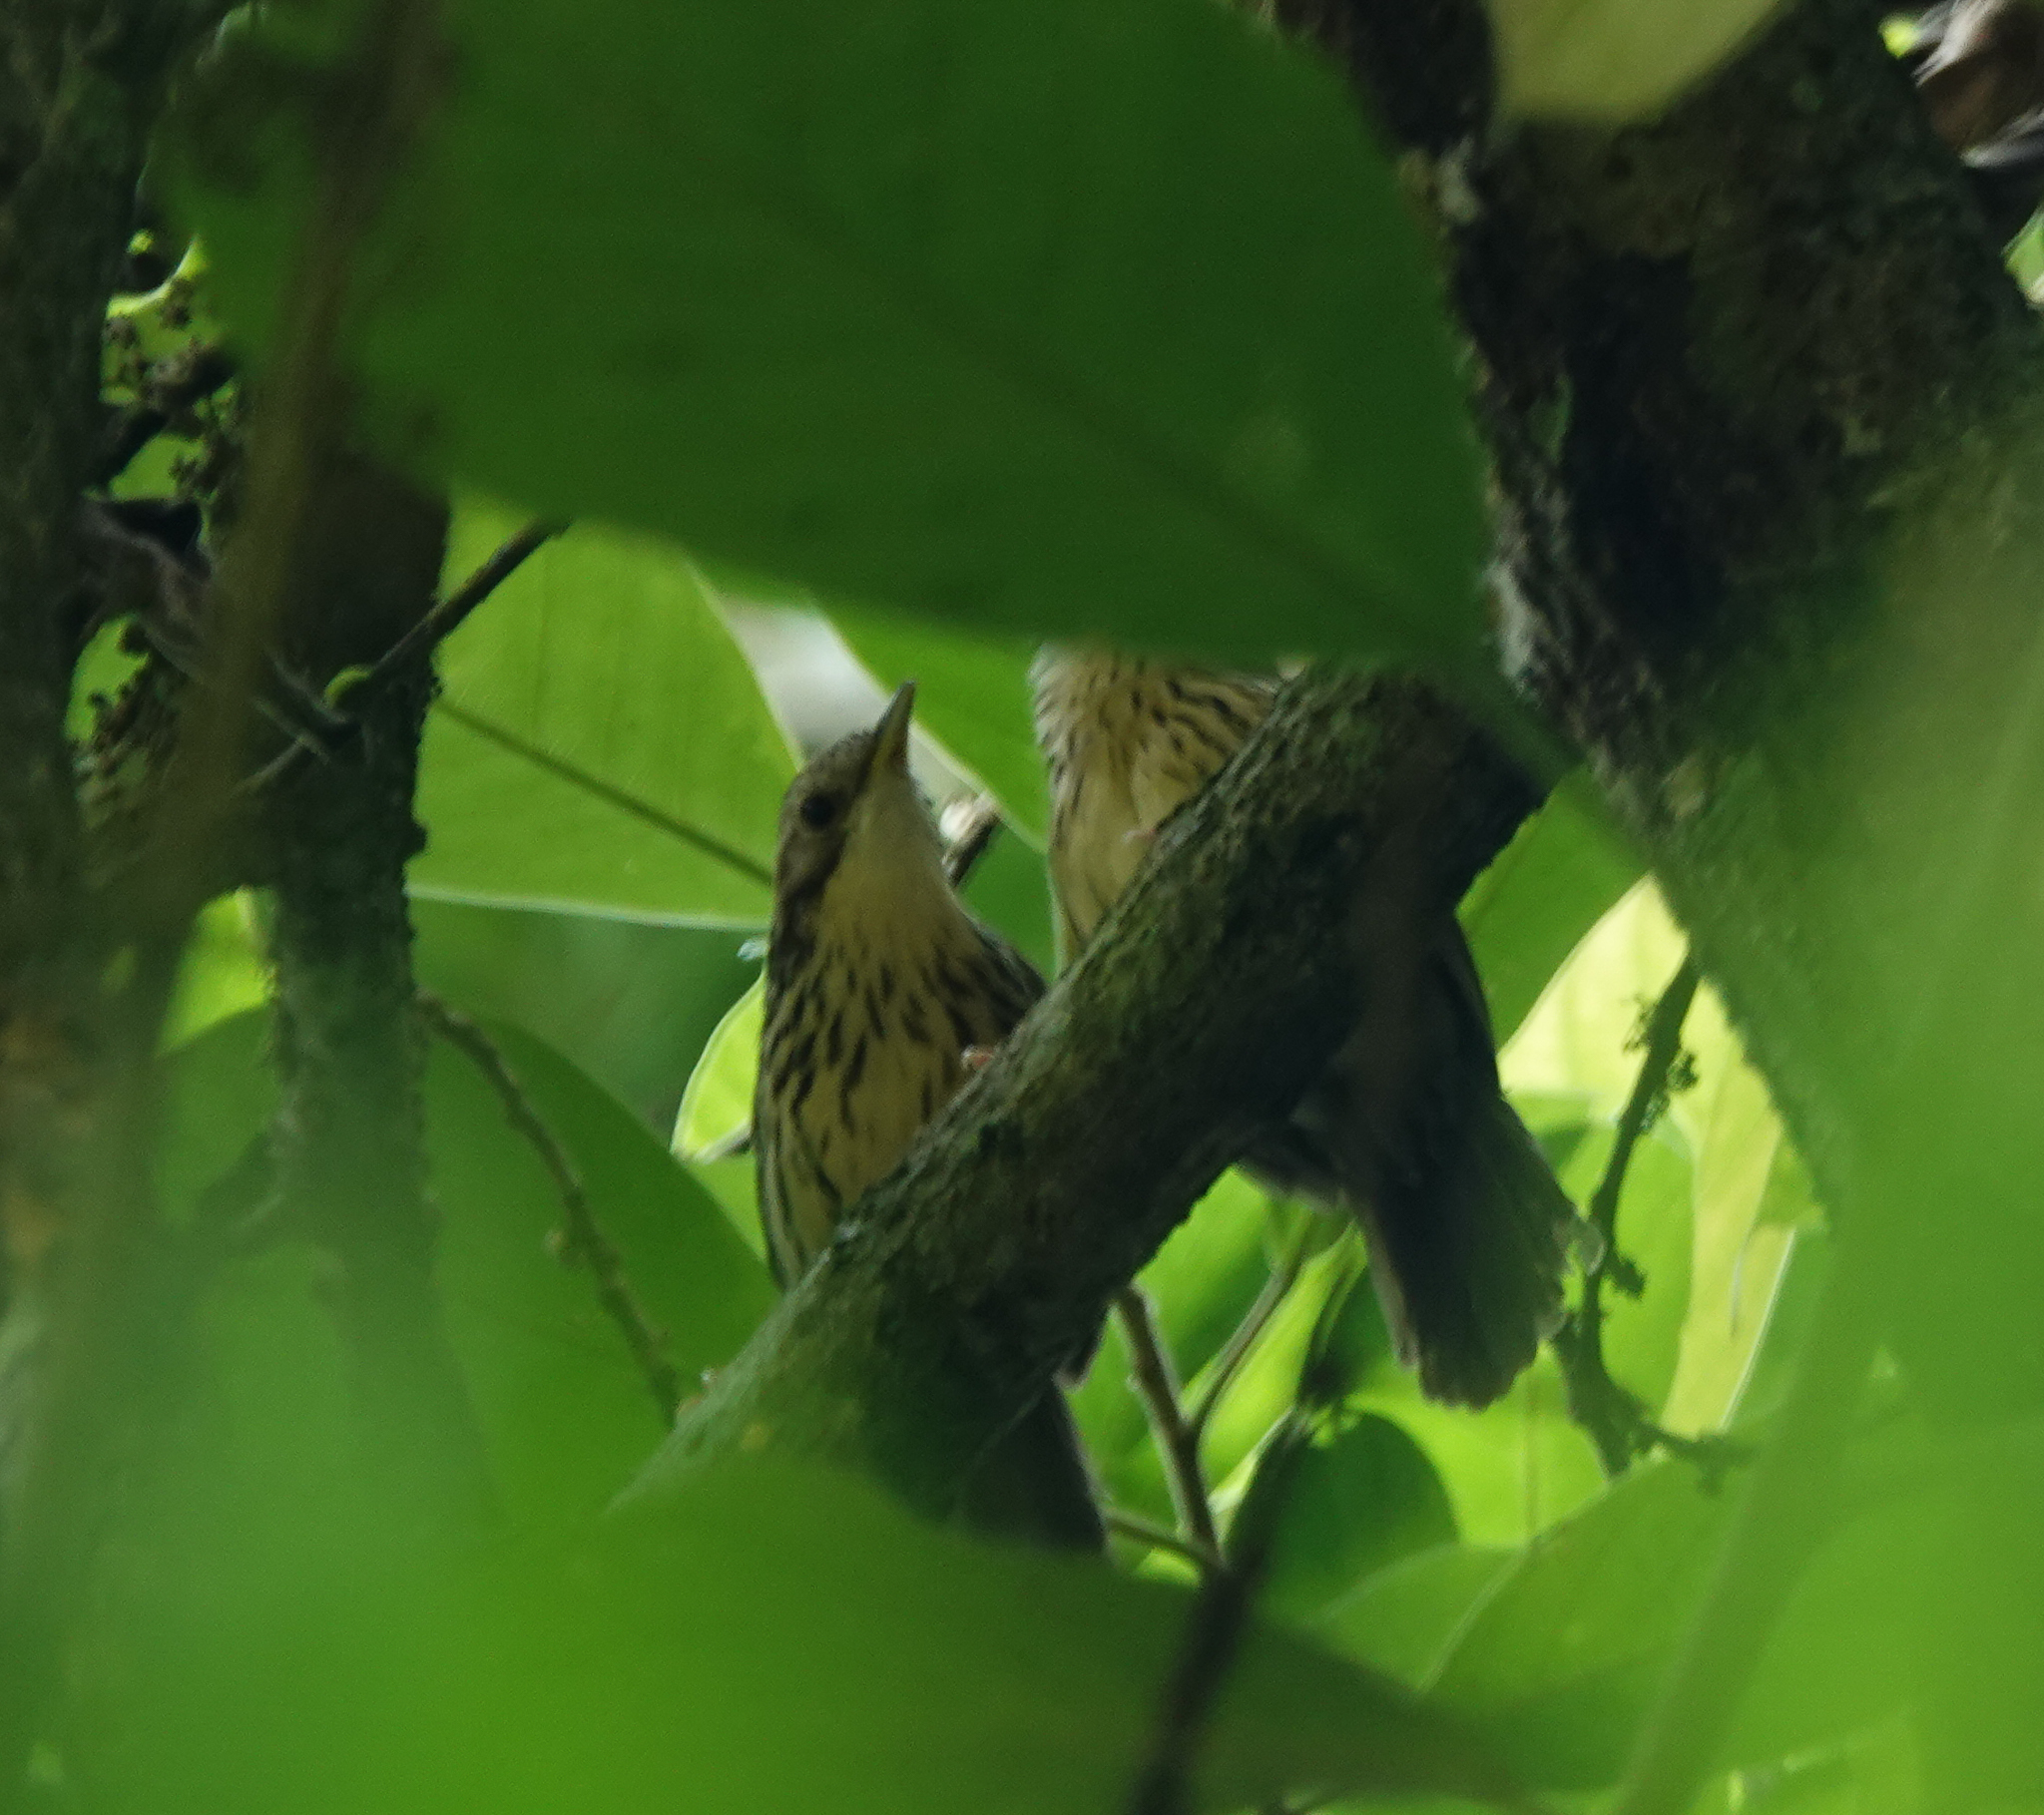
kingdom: Animalia
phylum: Chordata
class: Aves
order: Passeriformes
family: Pellorneidae
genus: Pellorneum
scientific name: Pellorneum ruficeps
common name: Puff-throated babbler
